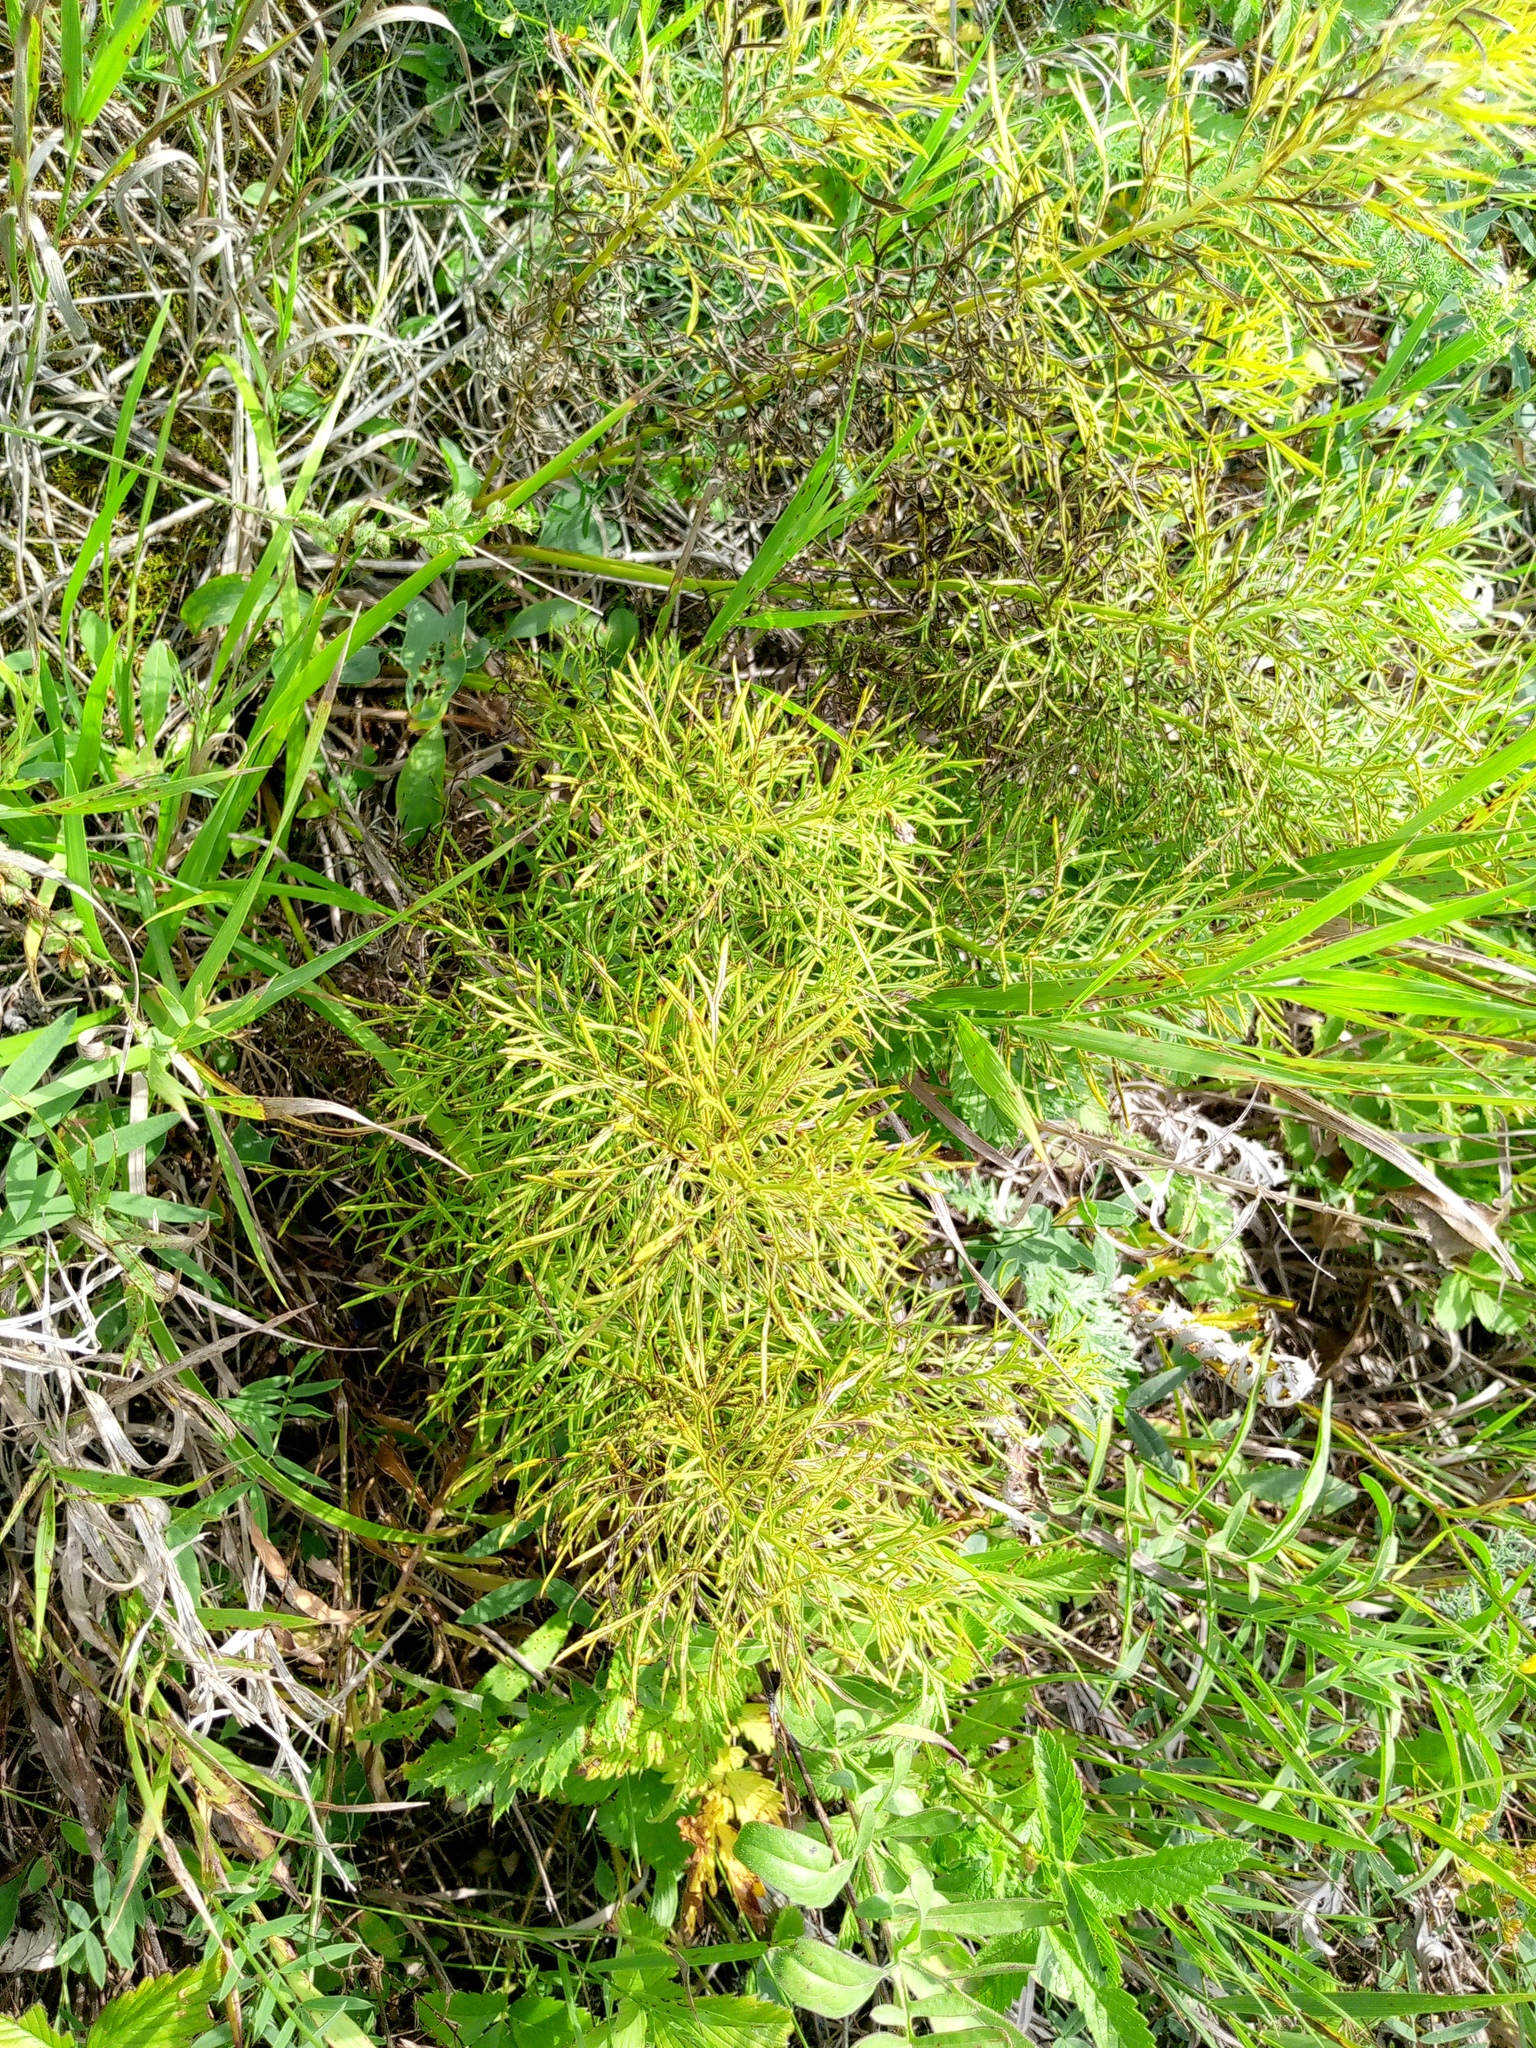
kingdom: Plantae
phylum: Tracheophyta
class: Magnoliopsida
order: Ranunculales
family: Ranunculaceae
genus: Adonis
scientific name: Adonis vernalis
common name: Yellow pheasants-eye
